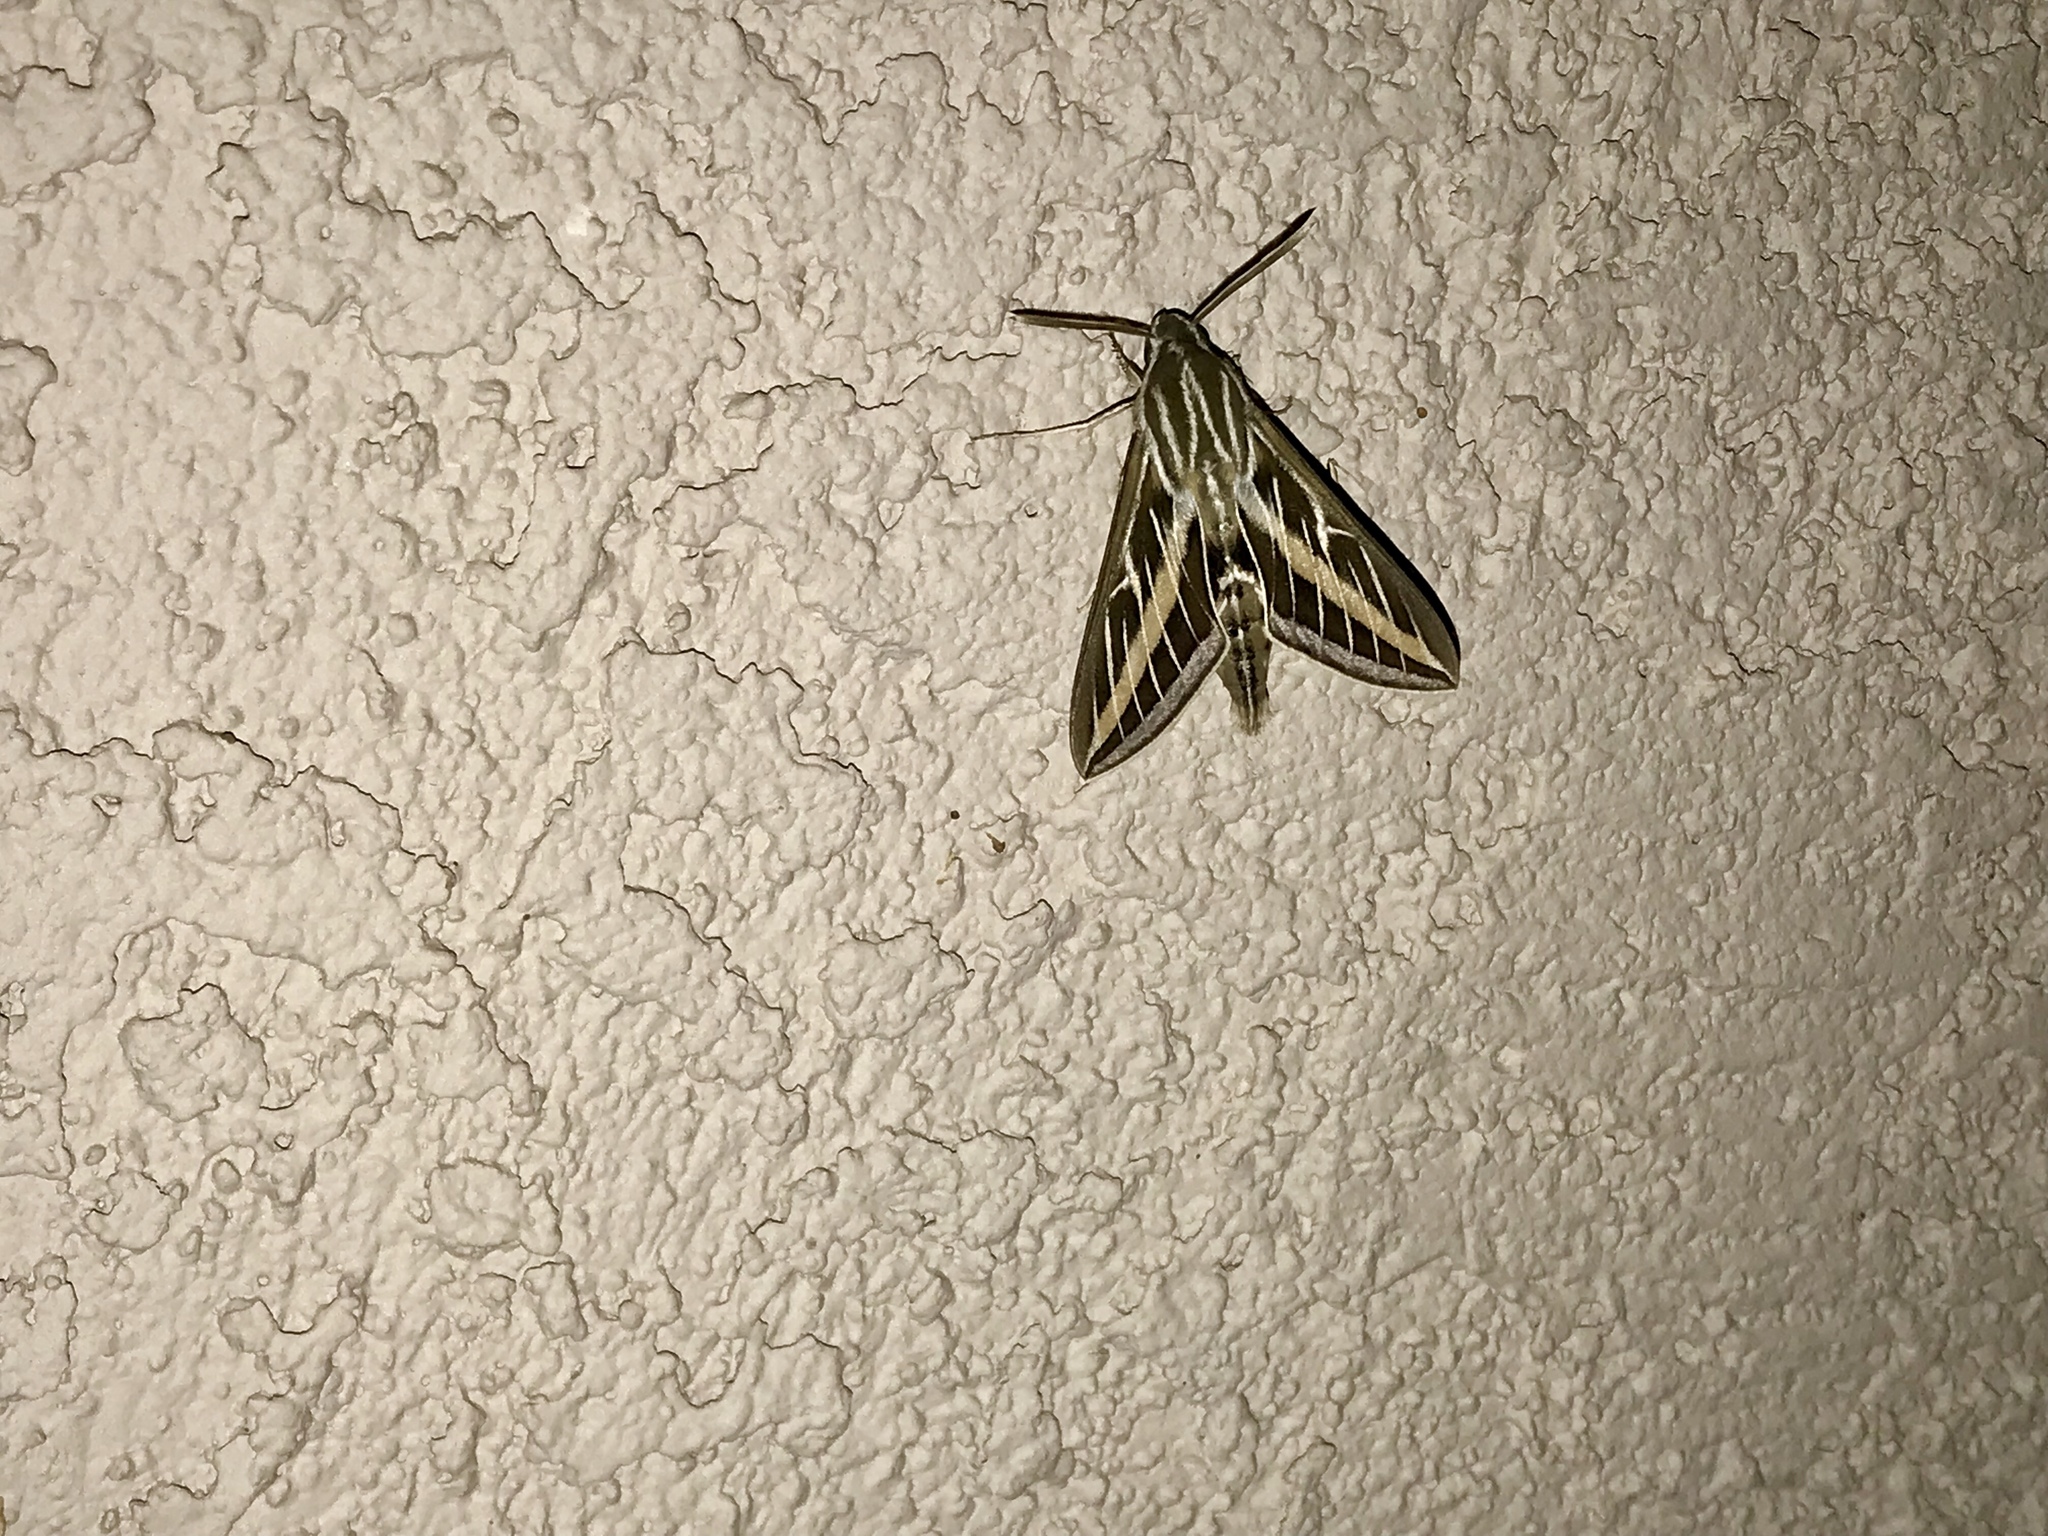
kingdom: Animalia
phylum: Arthropoda
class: Insecta
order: Lepidoptera
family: Sphingidae
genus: Hyles
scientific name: Hyles lineata
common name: White-lined sphinx
